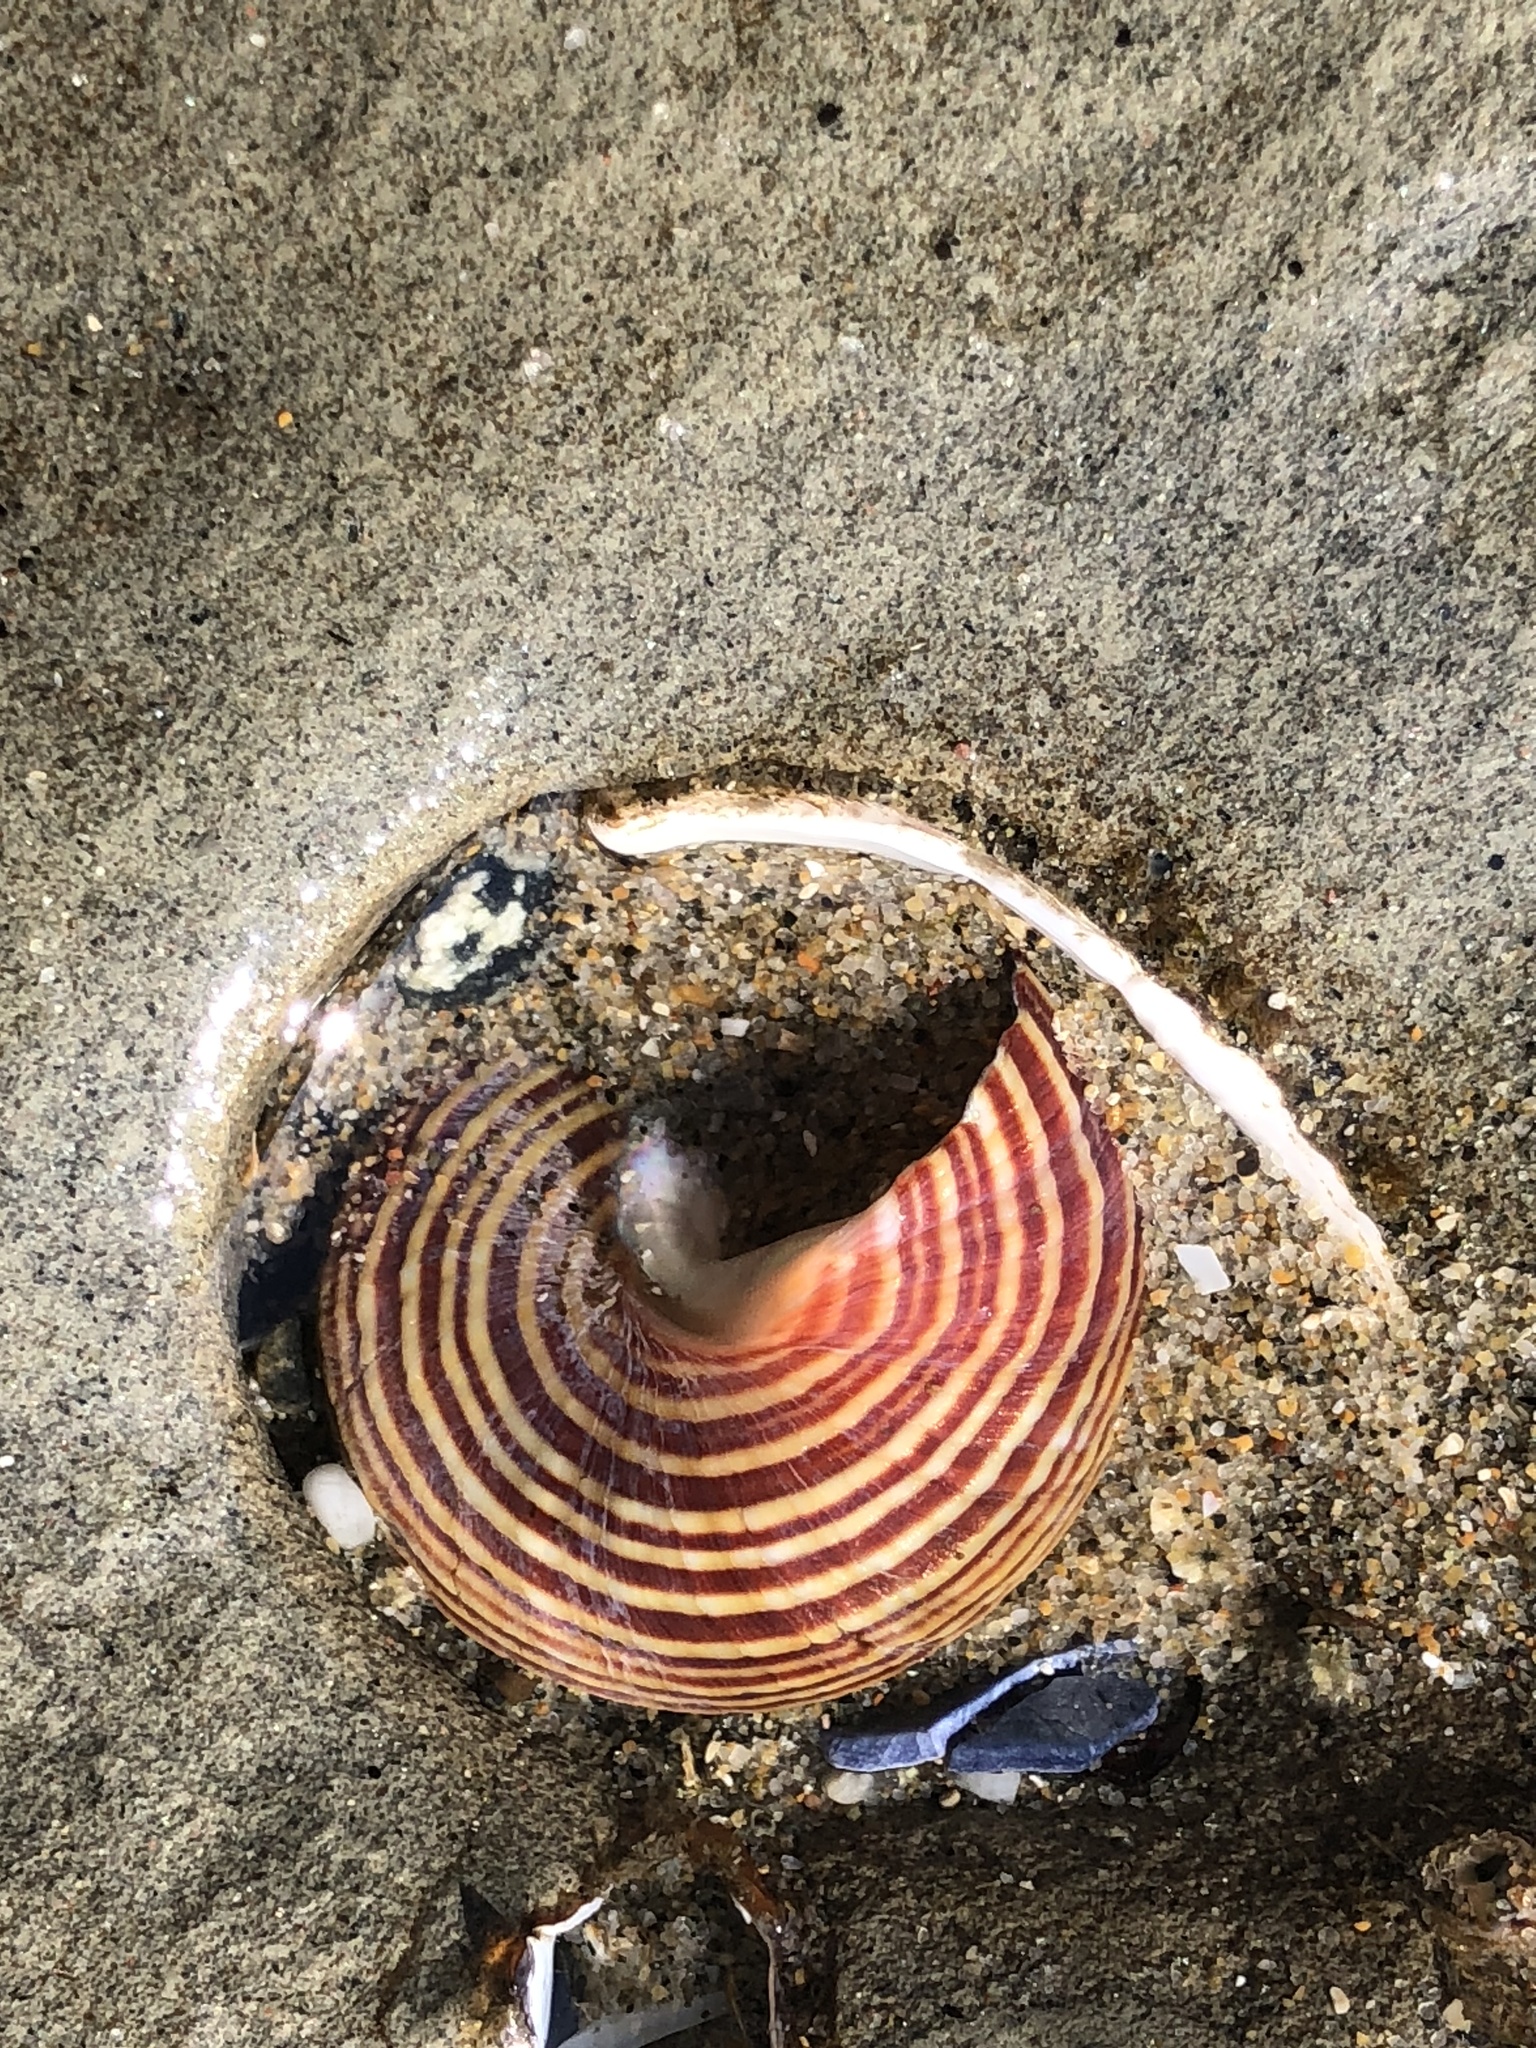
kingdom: Animalia
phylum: Mollusca
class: Gastropoda
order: Trochida
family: Calliostomatidae
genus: Calliostoma
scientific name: Calliostoma ligatum
